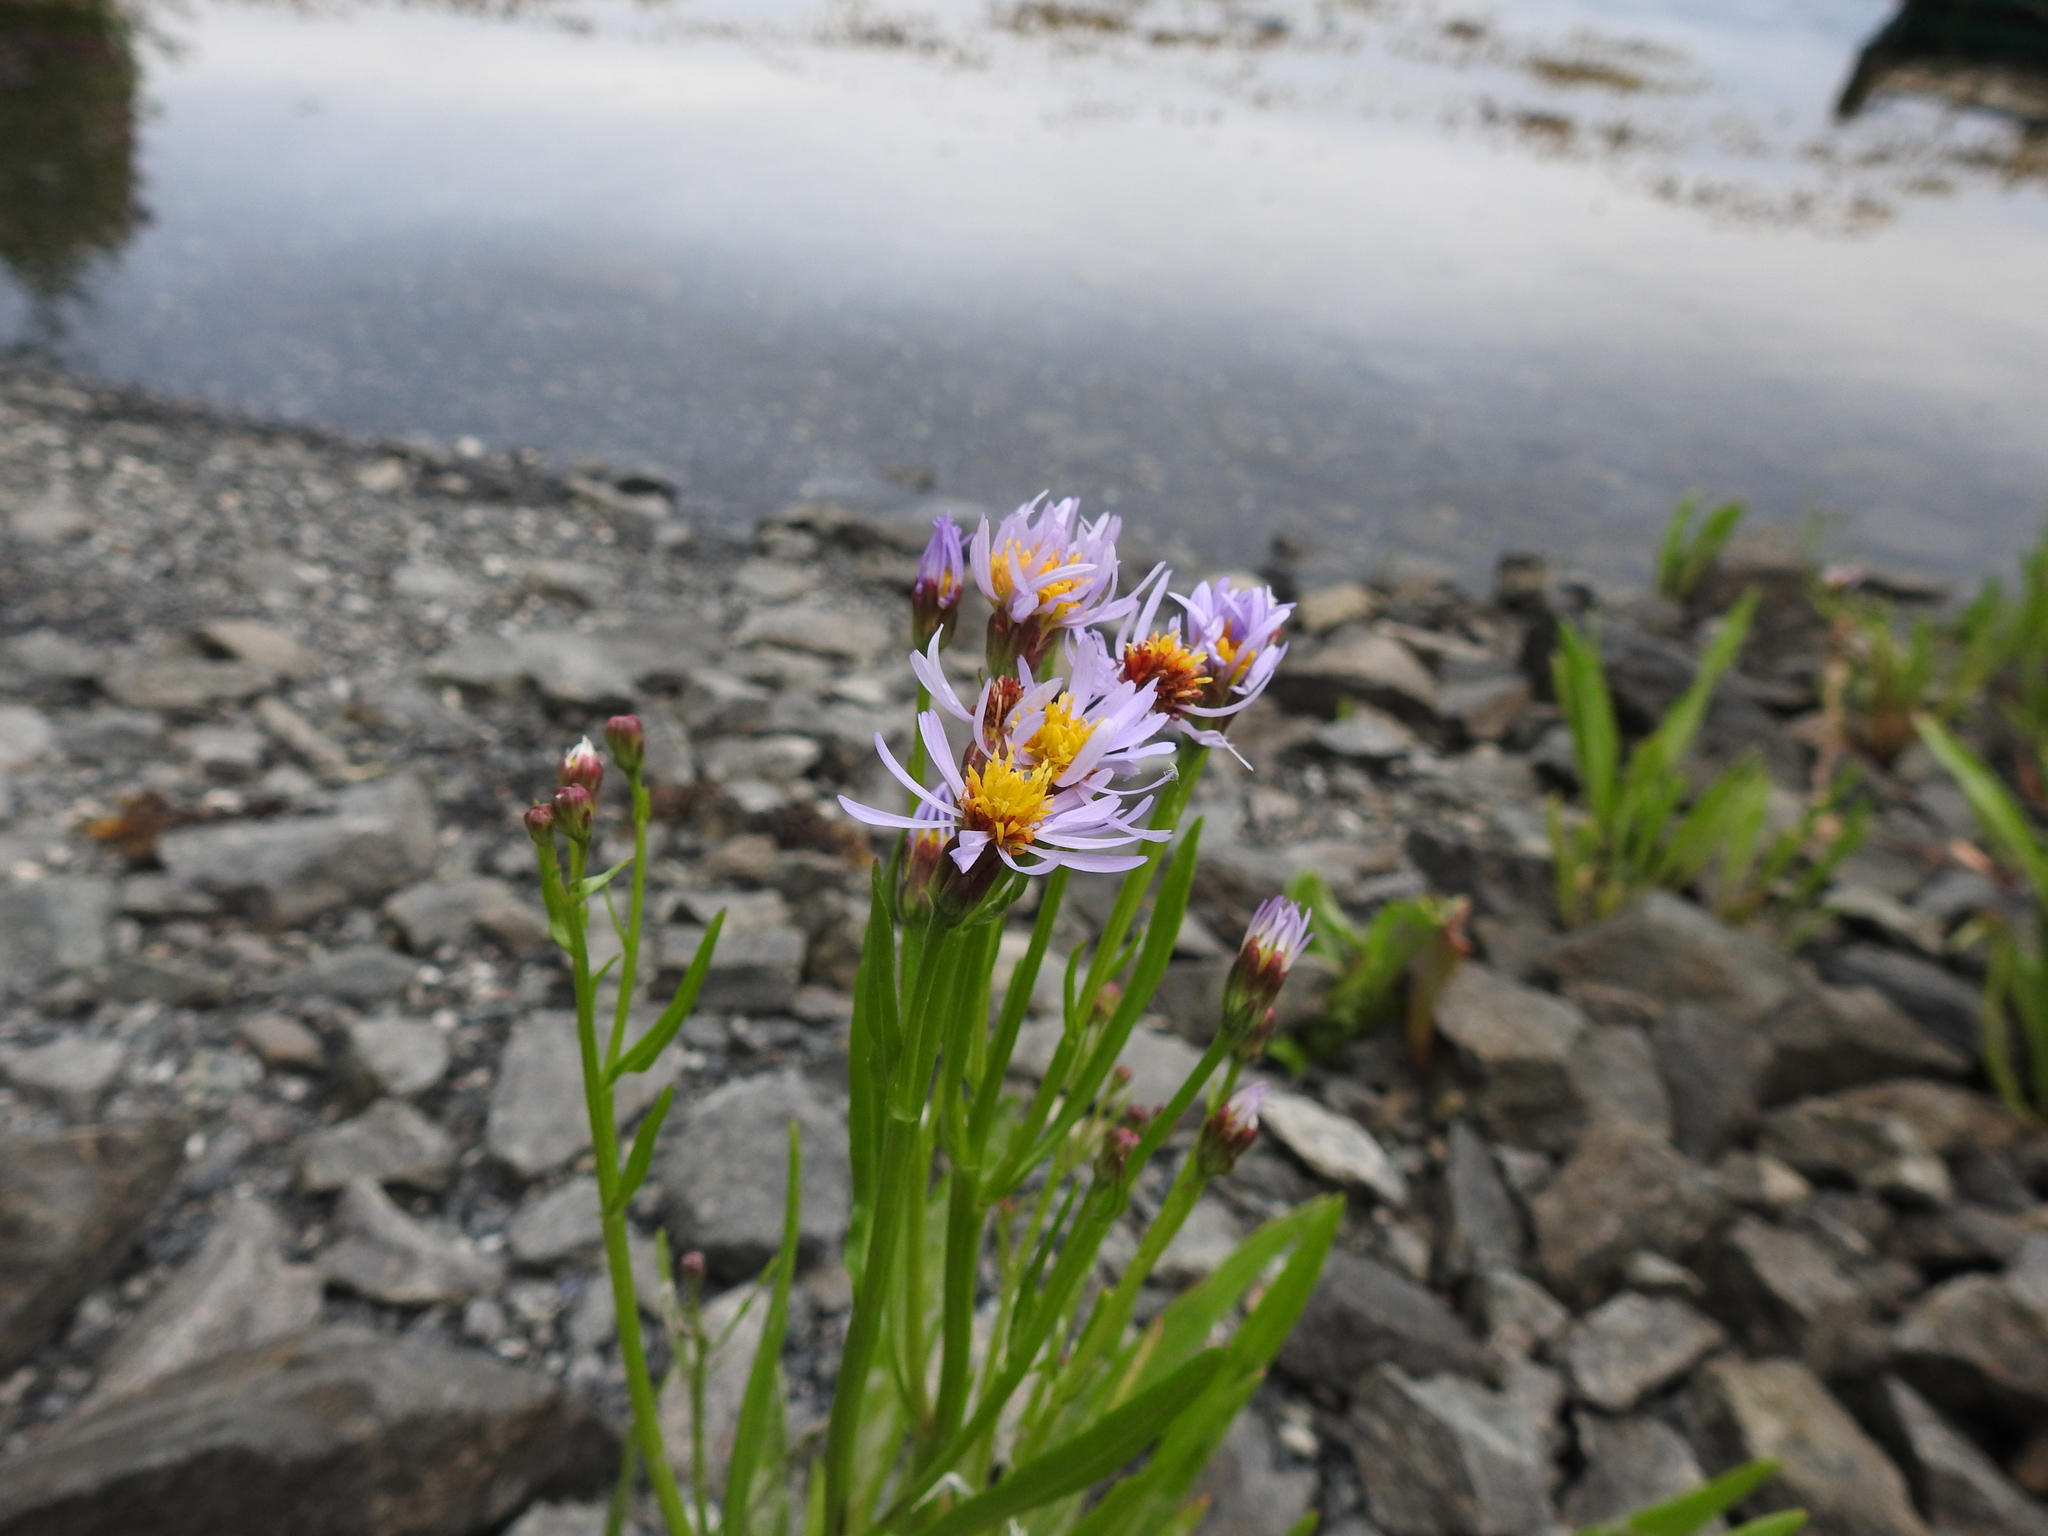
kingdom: Plantae
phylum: Tracheophyta
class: Magnoliopsida
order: Asterales
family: Asteraceae
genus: Tripolium
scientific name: Tripolium pannonicum
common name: Sea aster
